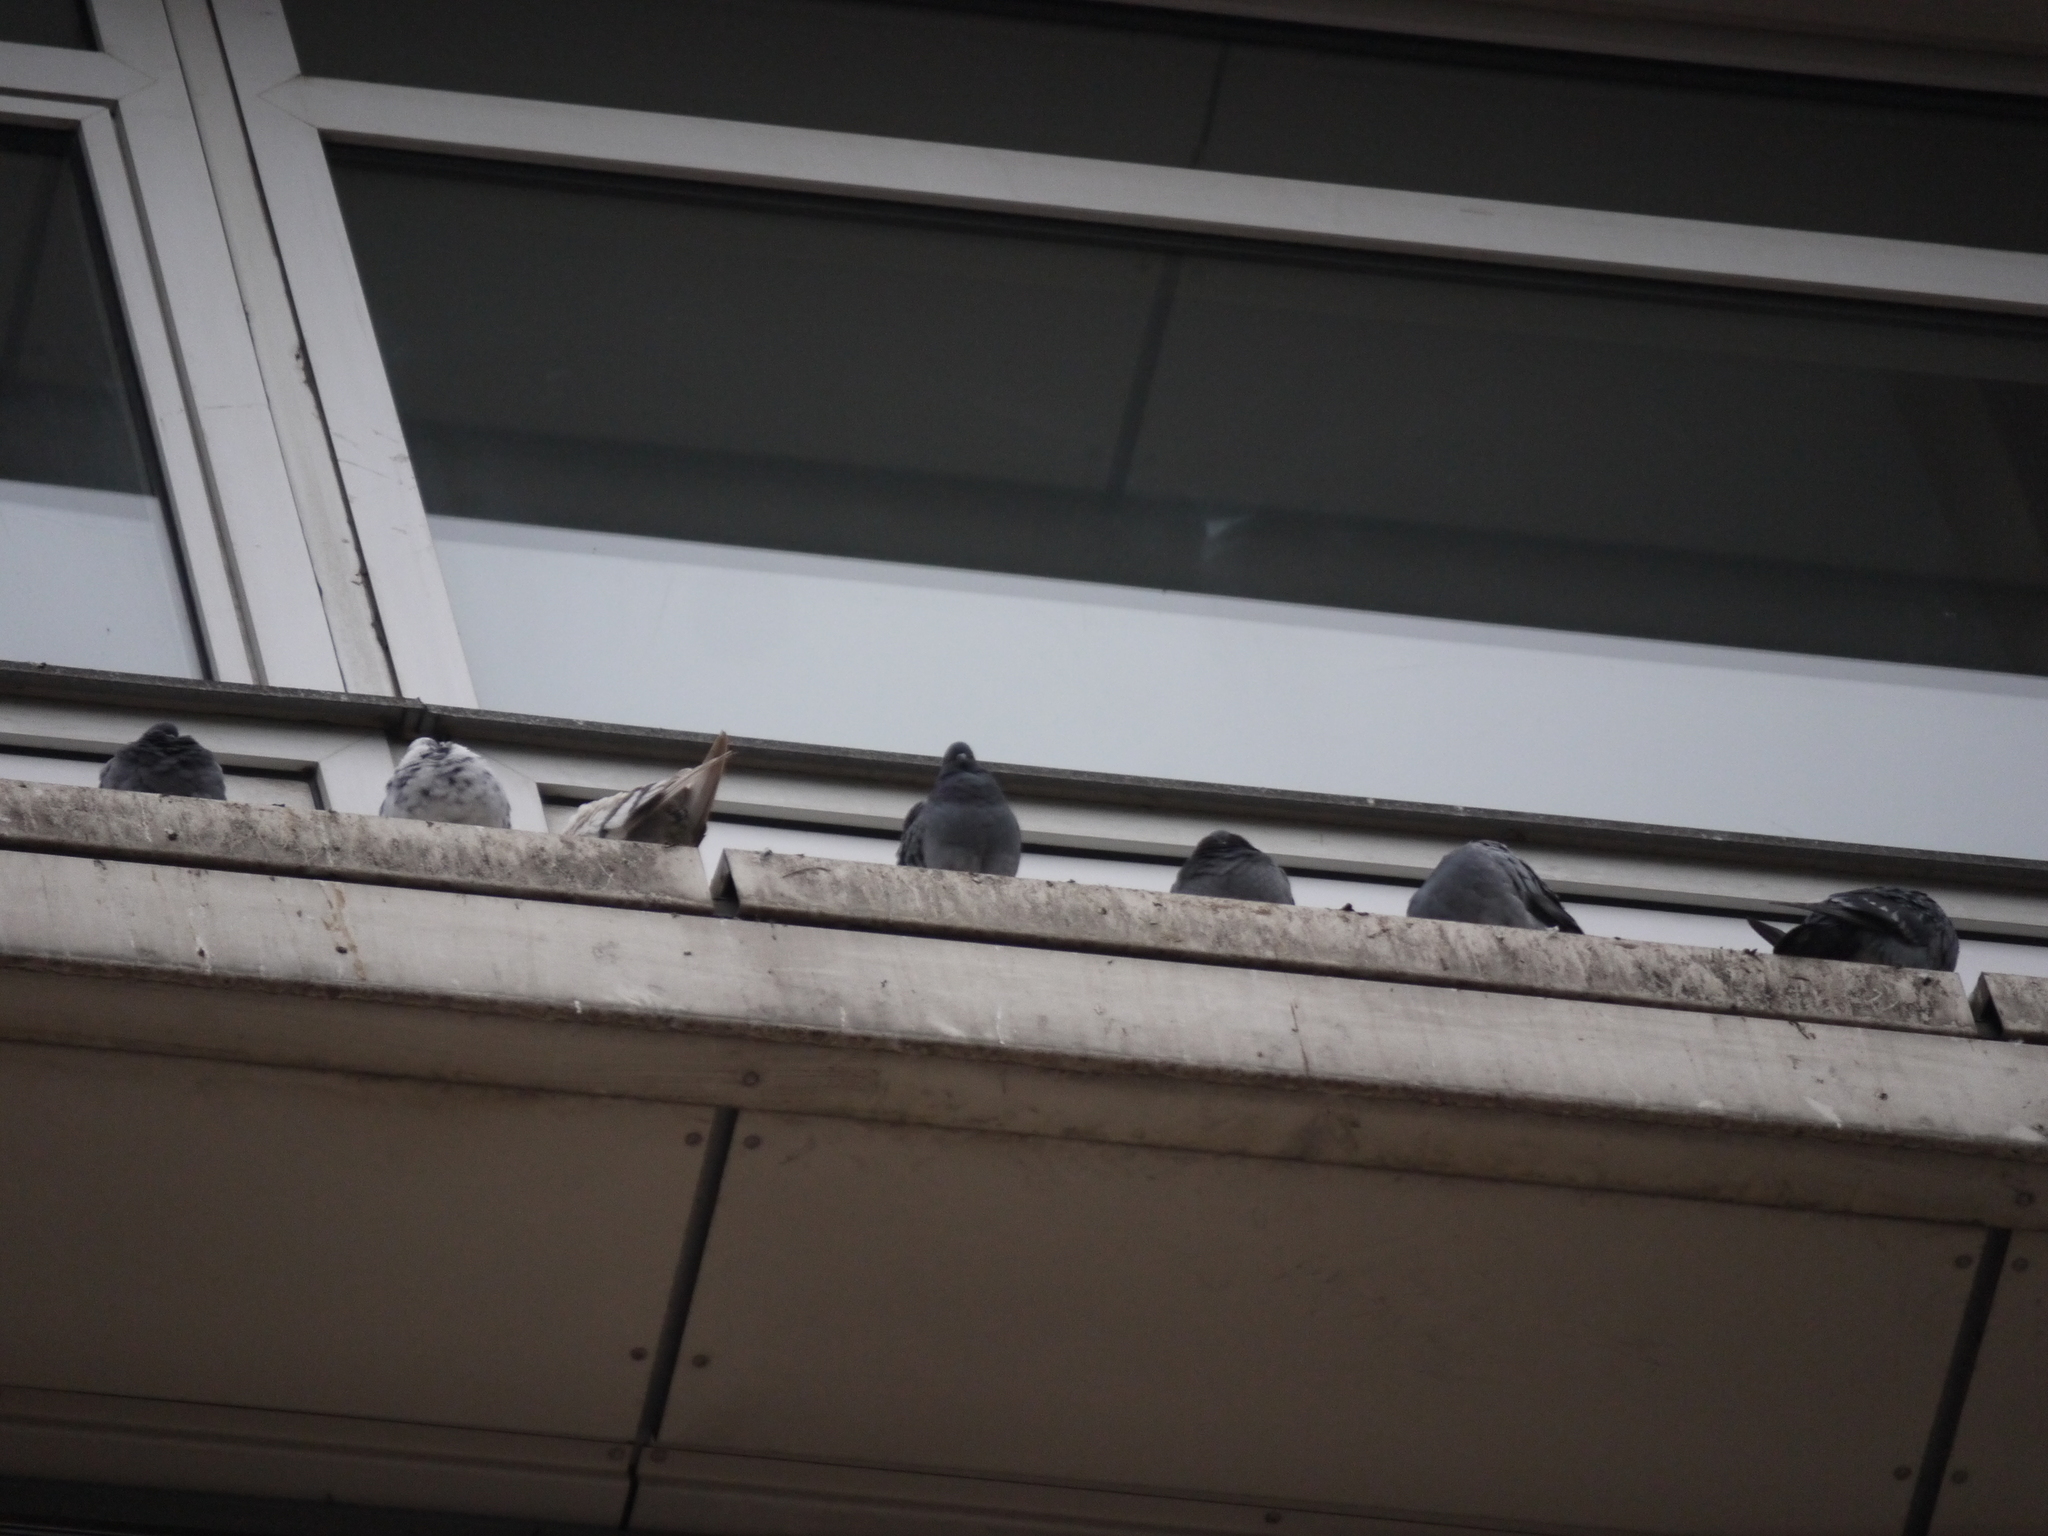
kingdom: Animalia
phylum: Chordata
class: Aves
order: Columbiformes
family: Columbidae
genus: Columba
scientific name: Columba livia
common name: Rock pigeon
